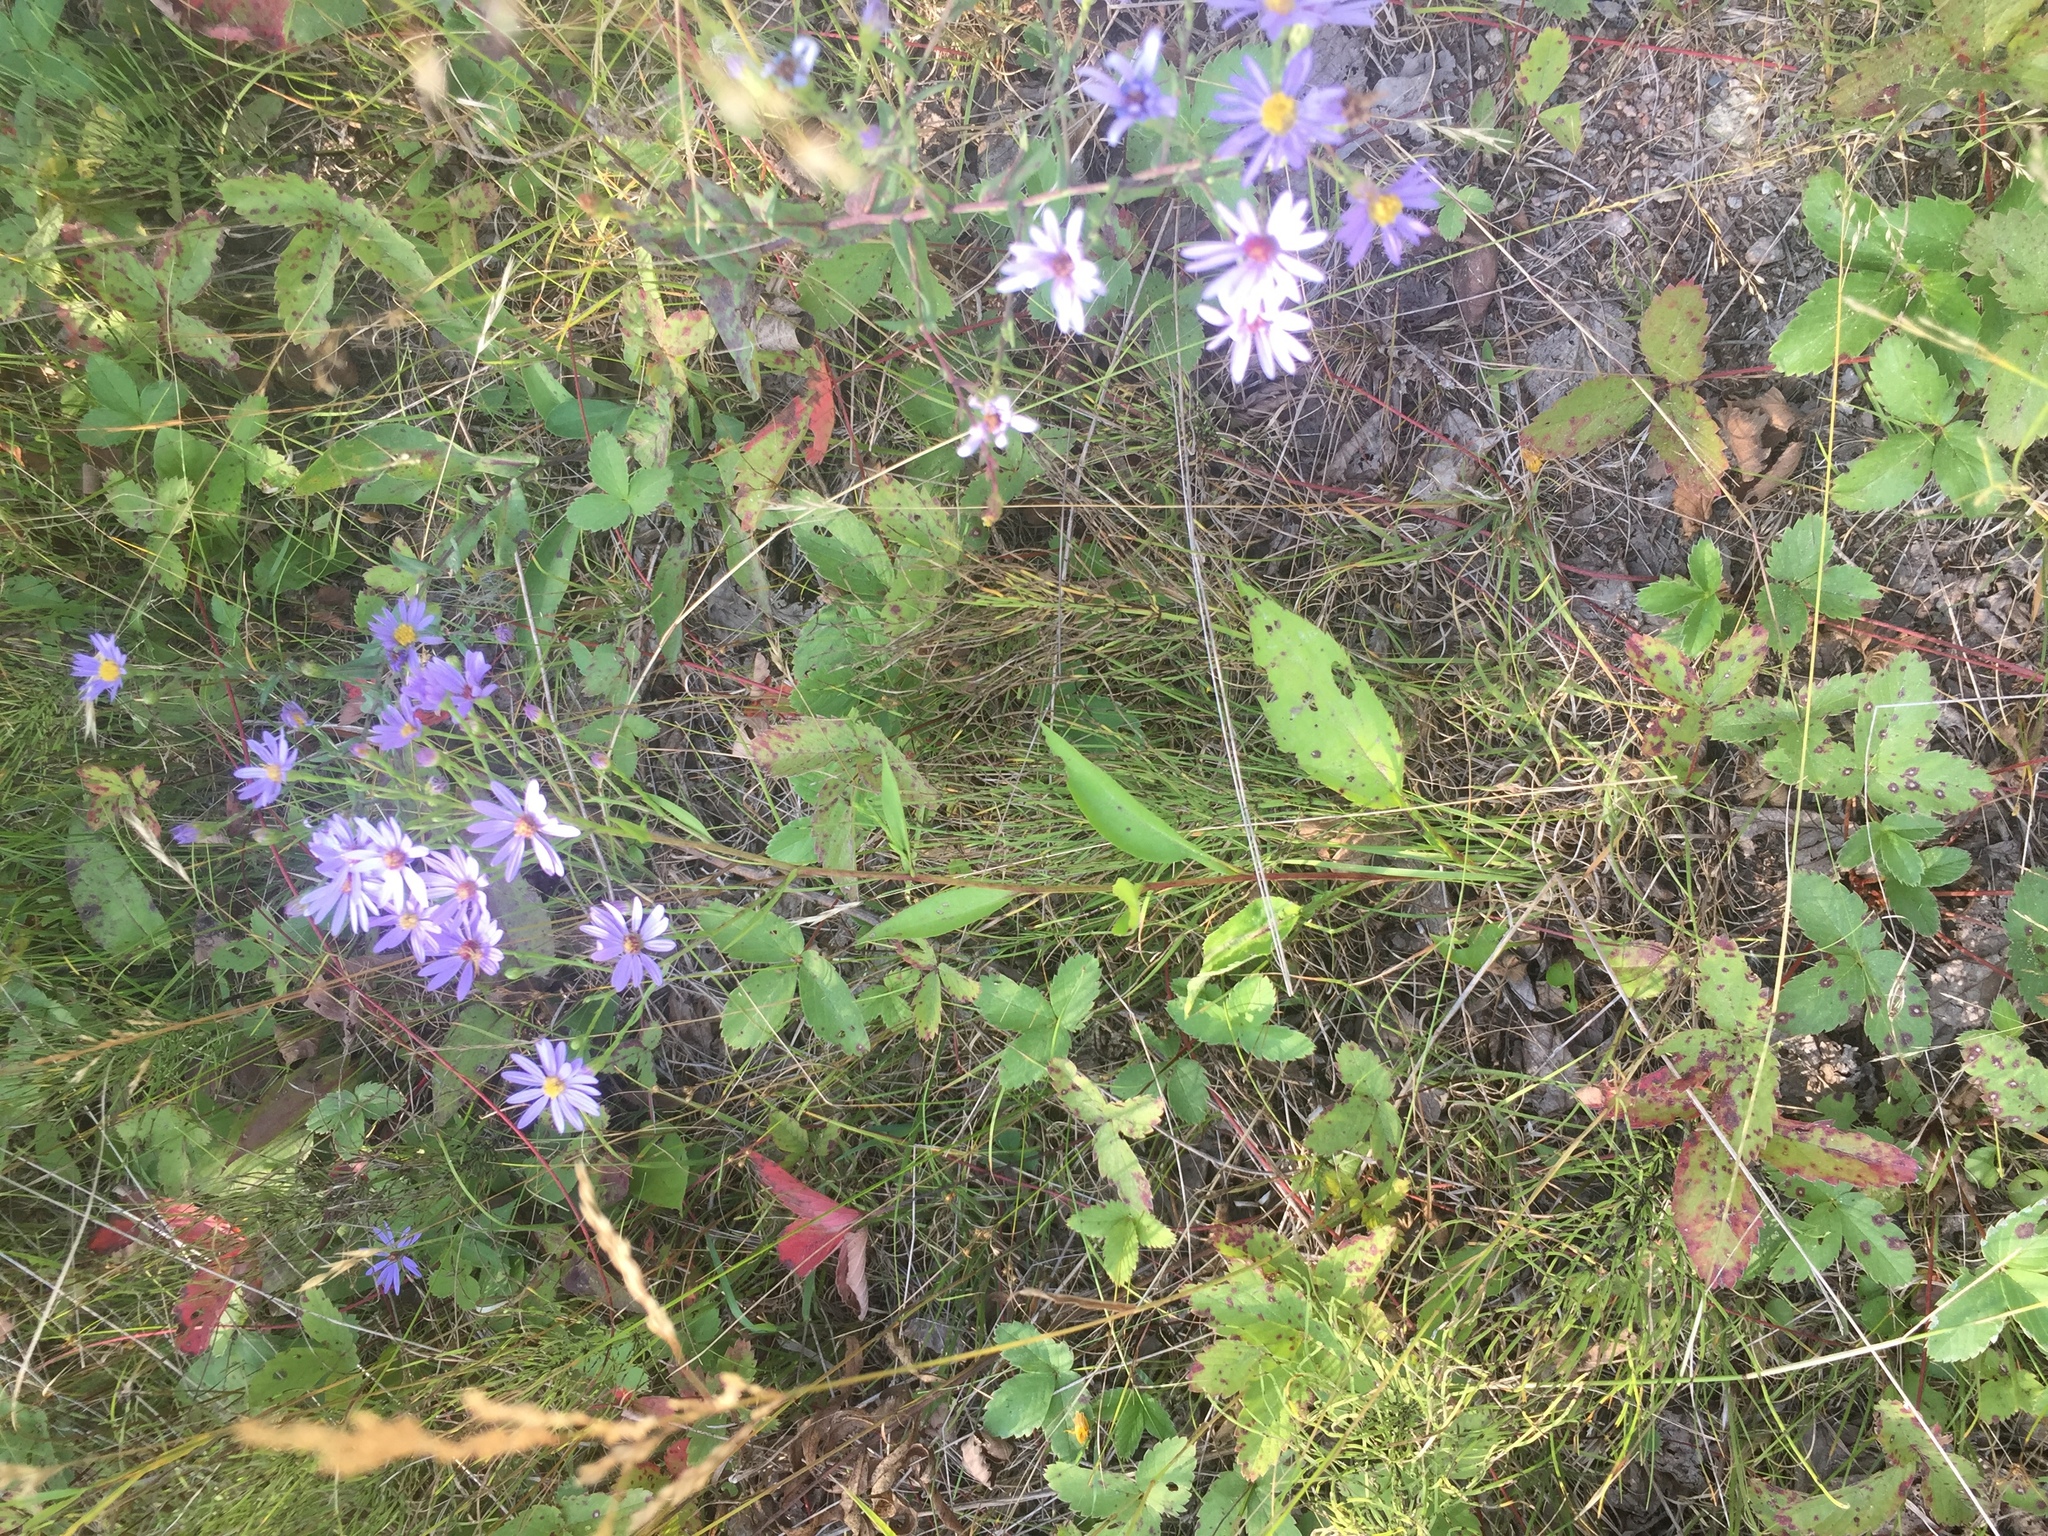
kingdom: Plantae
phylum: Tracheophyta
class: Magnoliopsida
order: Asterales
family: Asteraceae
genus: Symphyotrichum
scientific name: Symphyotrichum laeve
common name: Glaucous aster
